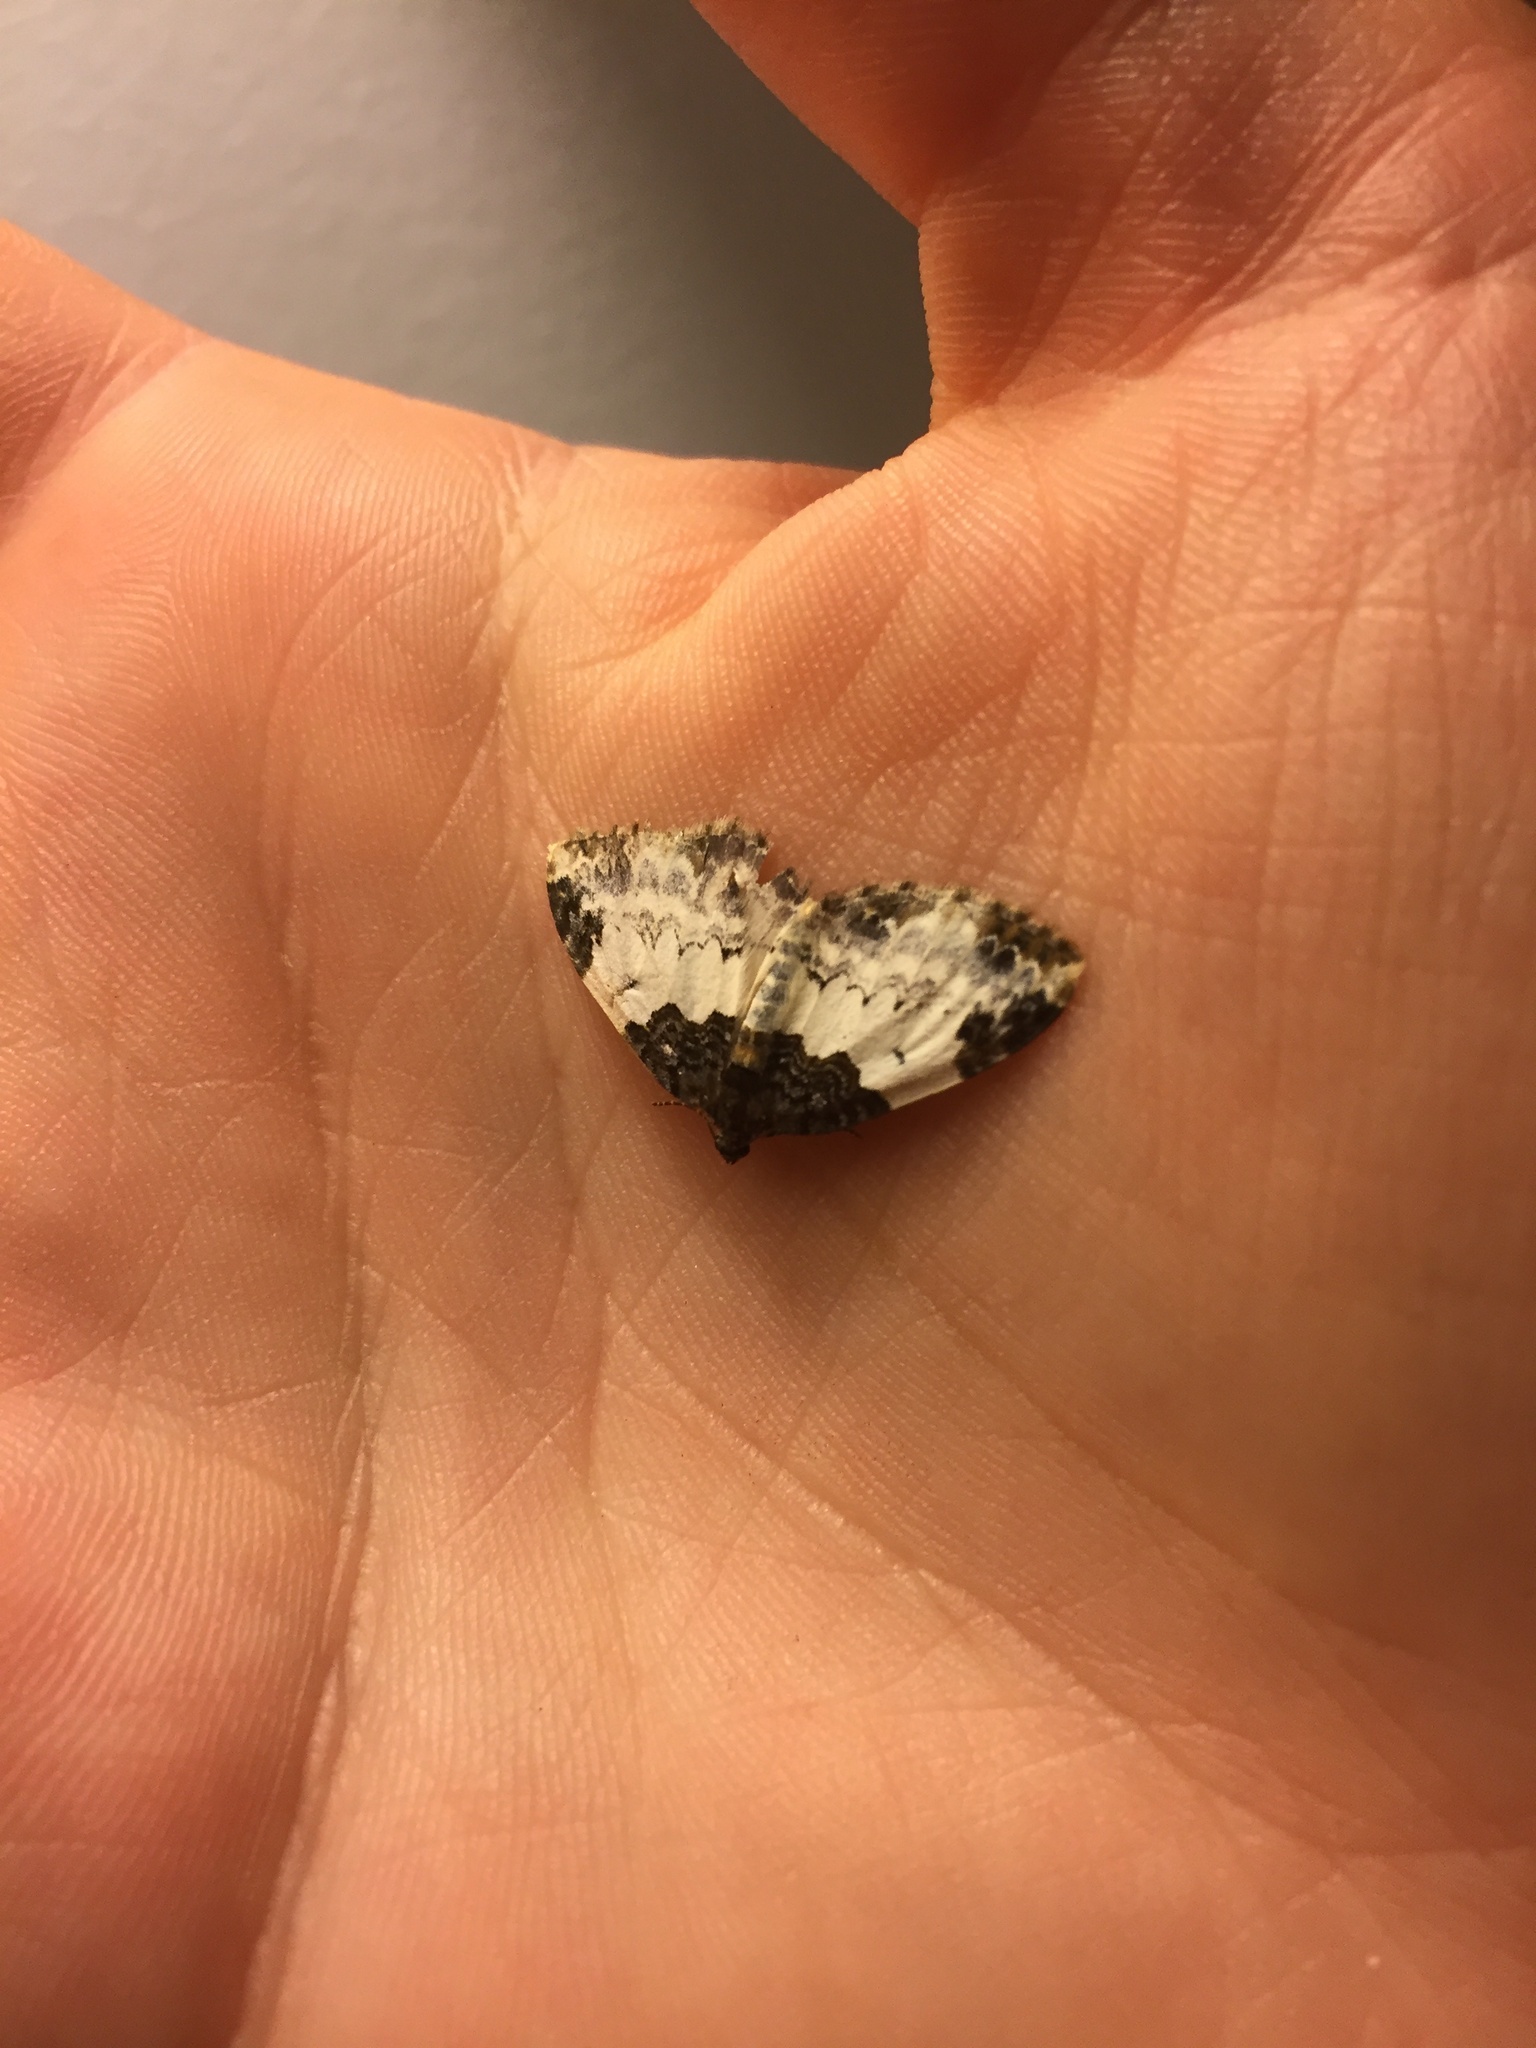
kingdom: Animalia
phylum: Arthropoda
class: Insecta
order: Lepidoptera
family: Geometridae
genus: Mesoleuca
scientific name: Mesoleuca ruficillata
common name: White-ribboned carpet moth
